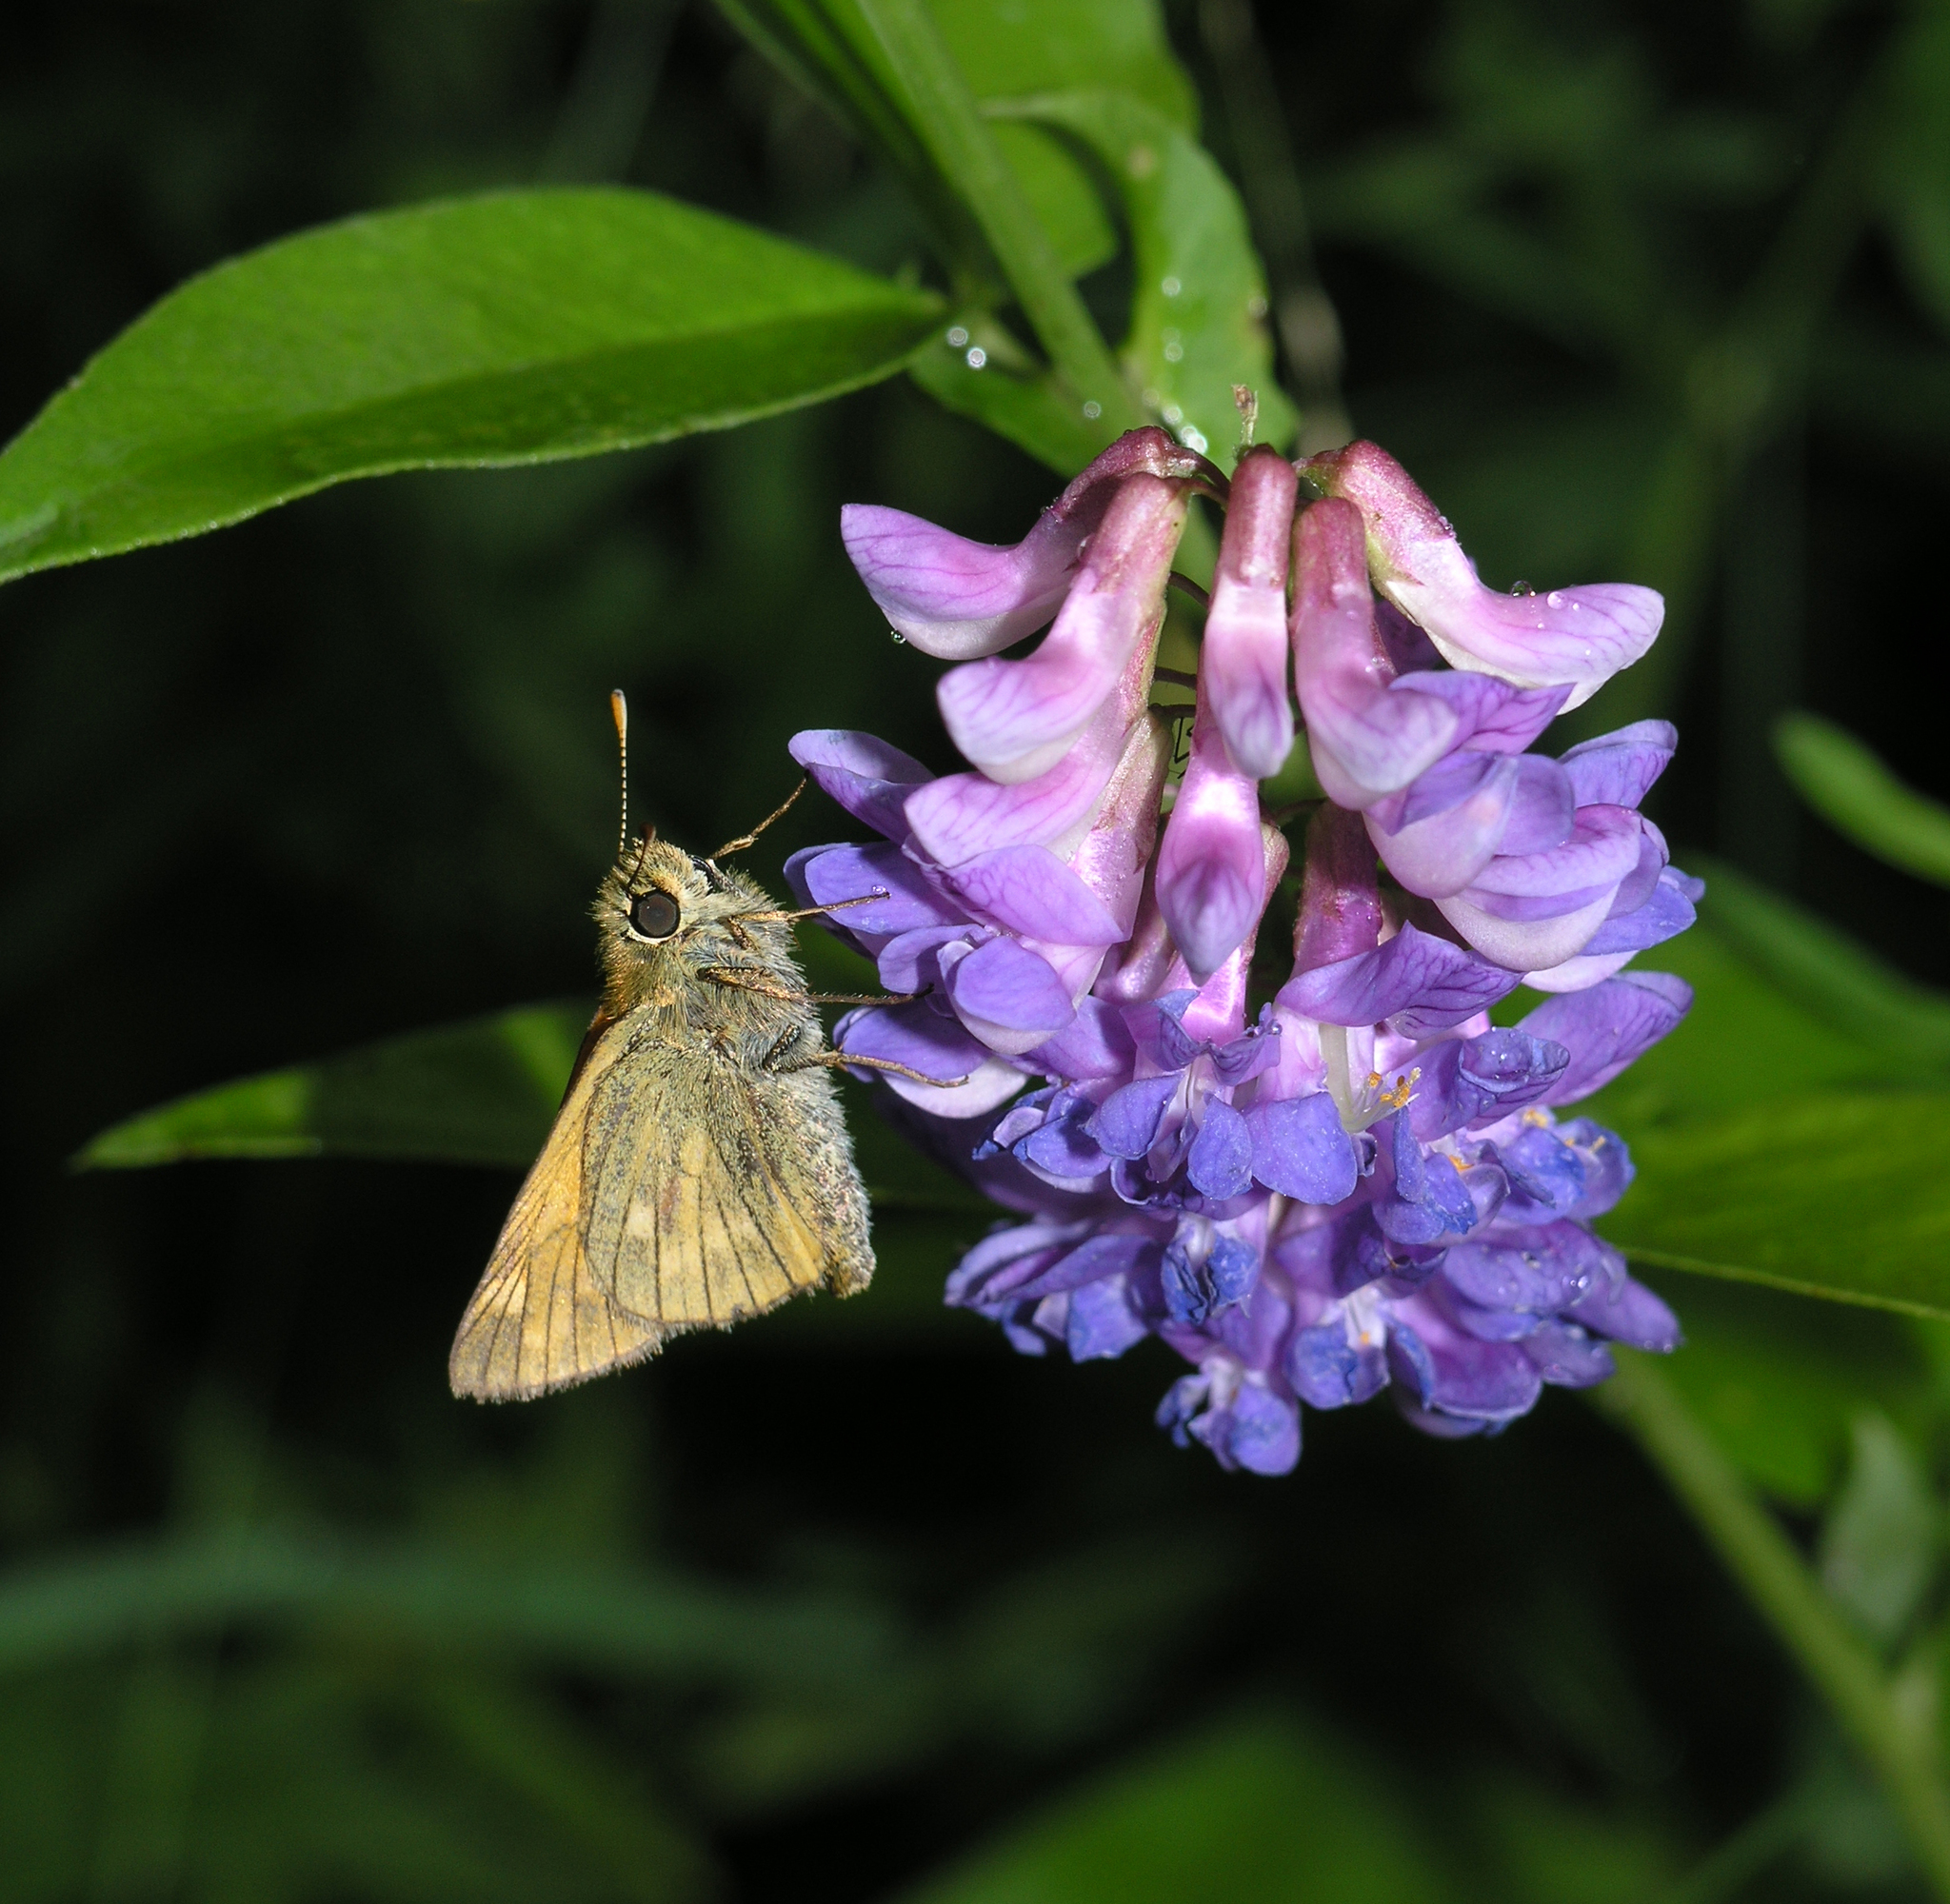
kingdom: Plantae
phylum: Tracheophyta
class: Magnoliopsida
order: Fabales
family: Fabaceae
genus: Vicia
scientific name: Vicia unijuga
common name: Two-leaf vetch
